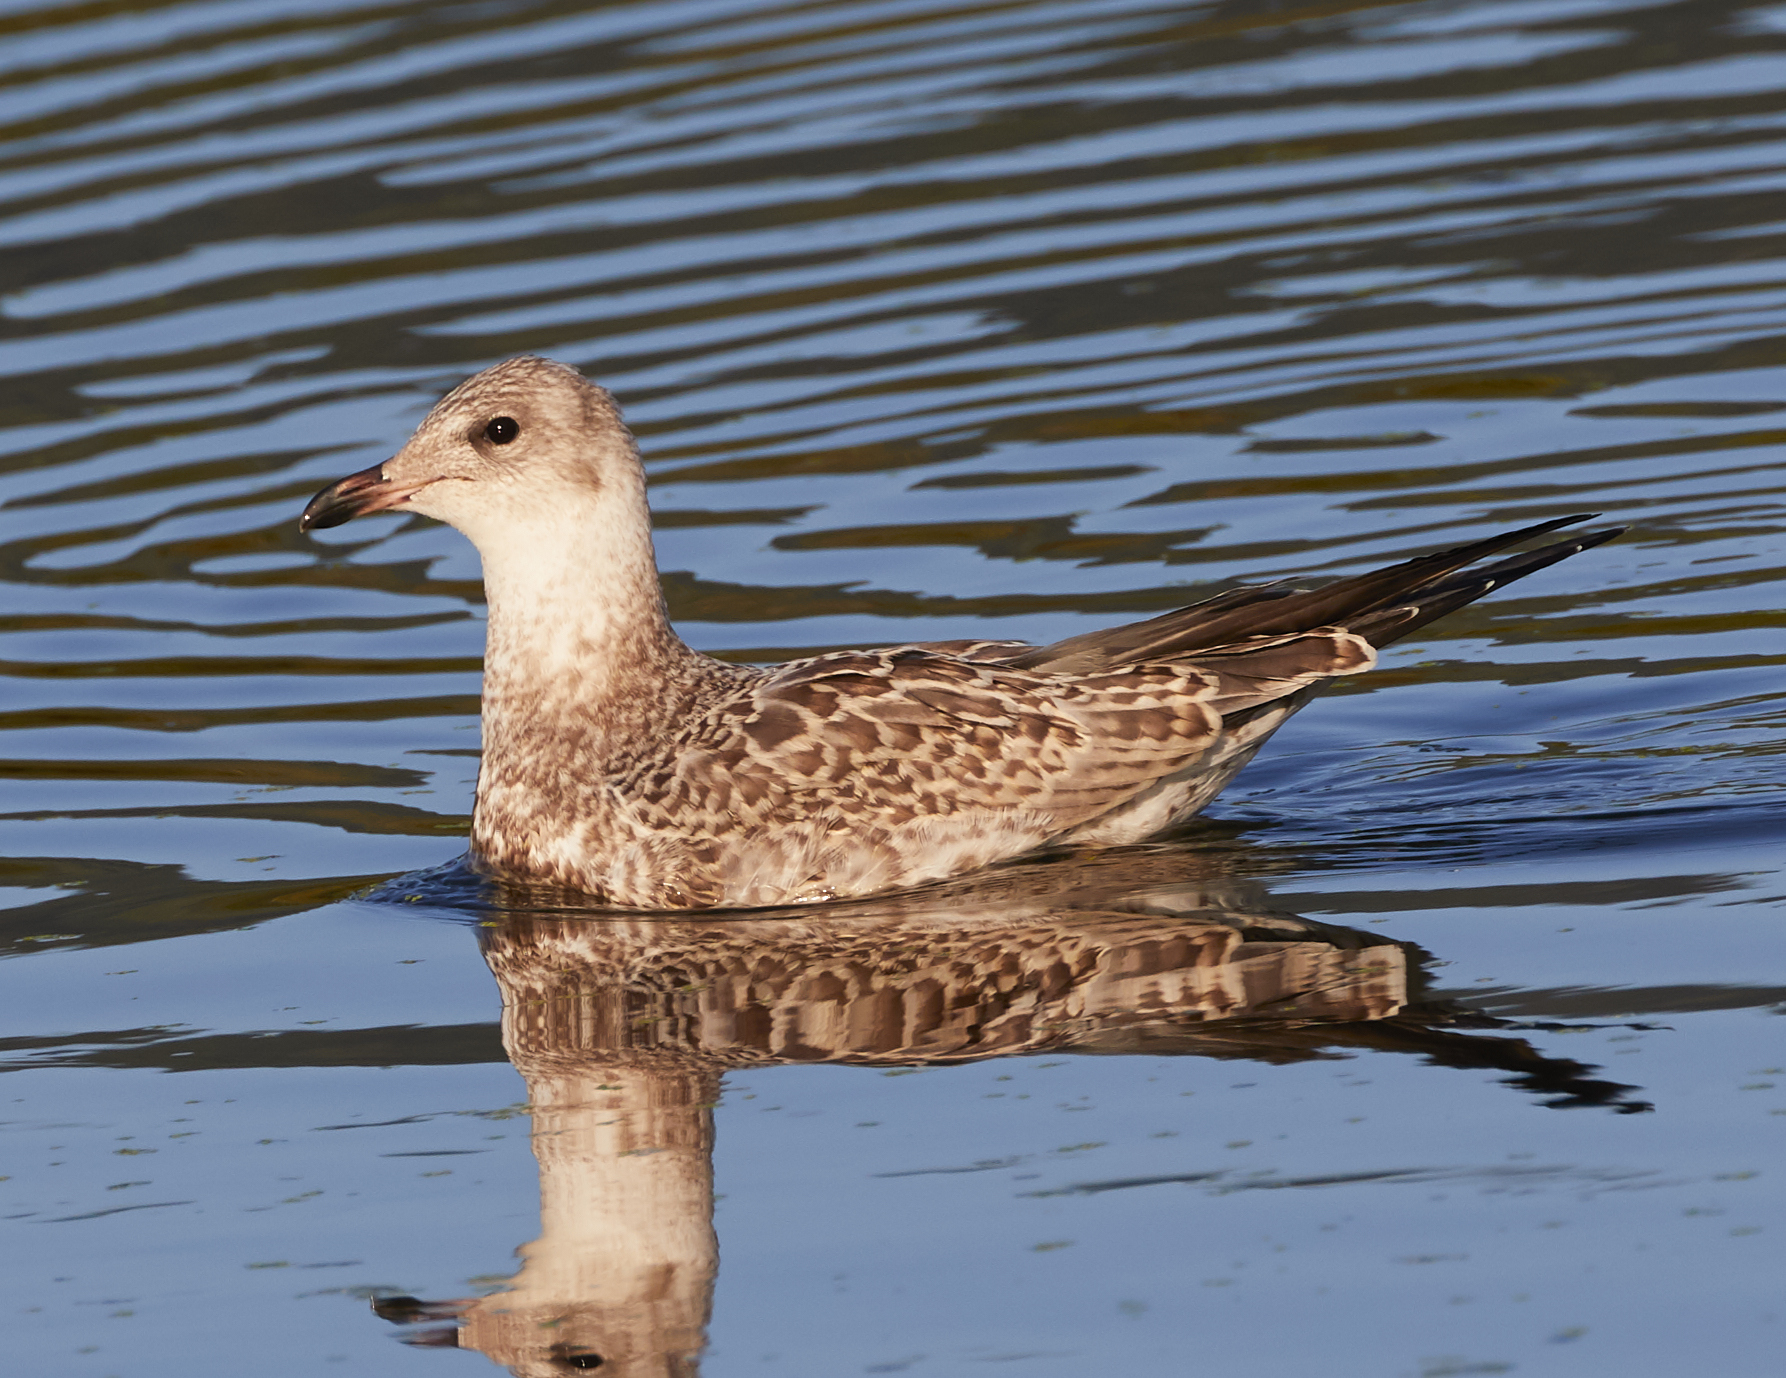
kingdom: Animalia
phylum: Chordata
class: Aves
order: Charadriiformes
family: Laridae
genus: Larus
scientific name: Larus delawarensis
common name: Ring-billed gull
